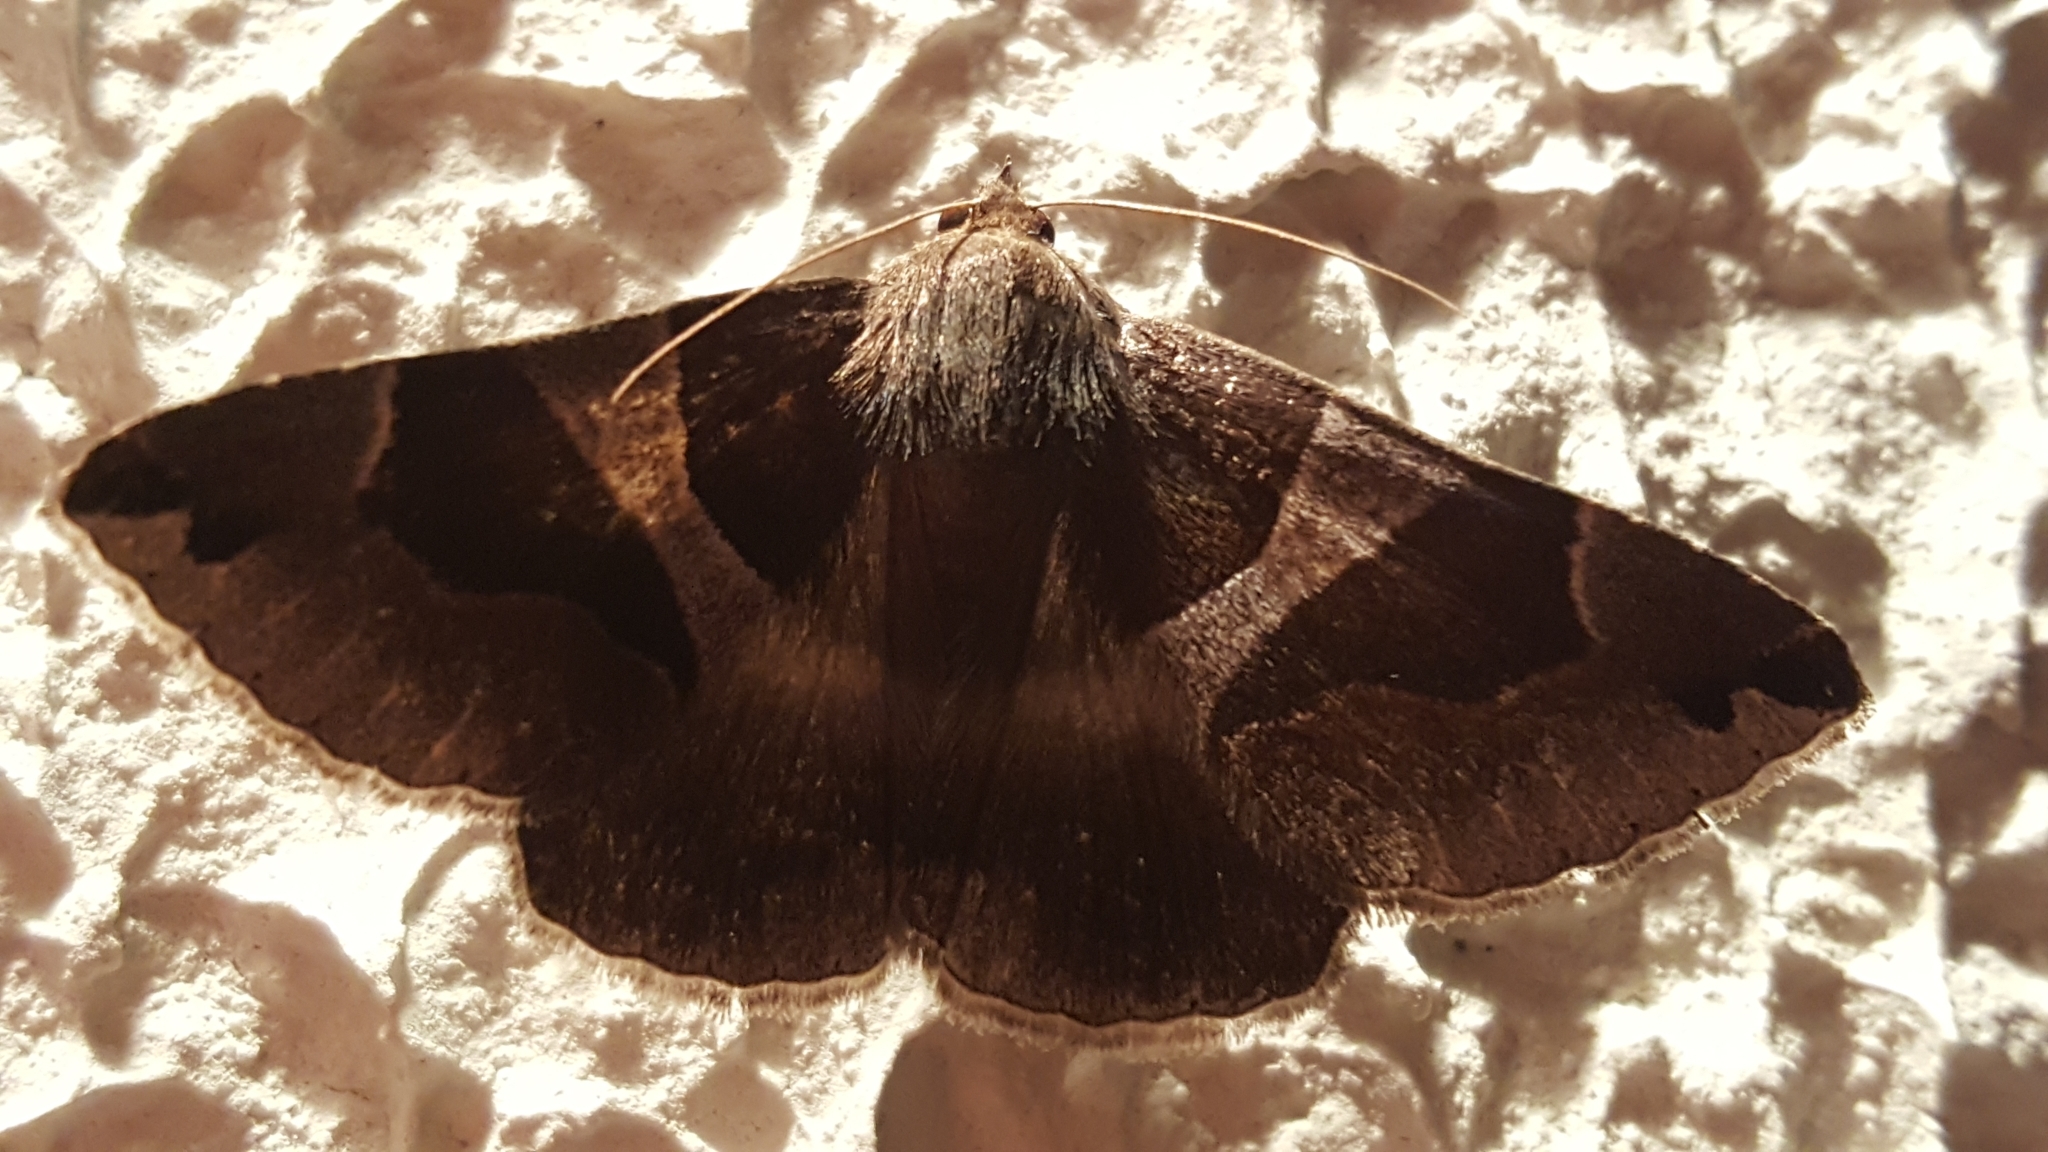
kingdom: Animalia
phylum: Arthropoda
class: Insecta
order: Lepidoptera
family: Erebidae
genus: Dysgonia
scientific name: Dysgonia algira
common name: Passenger
